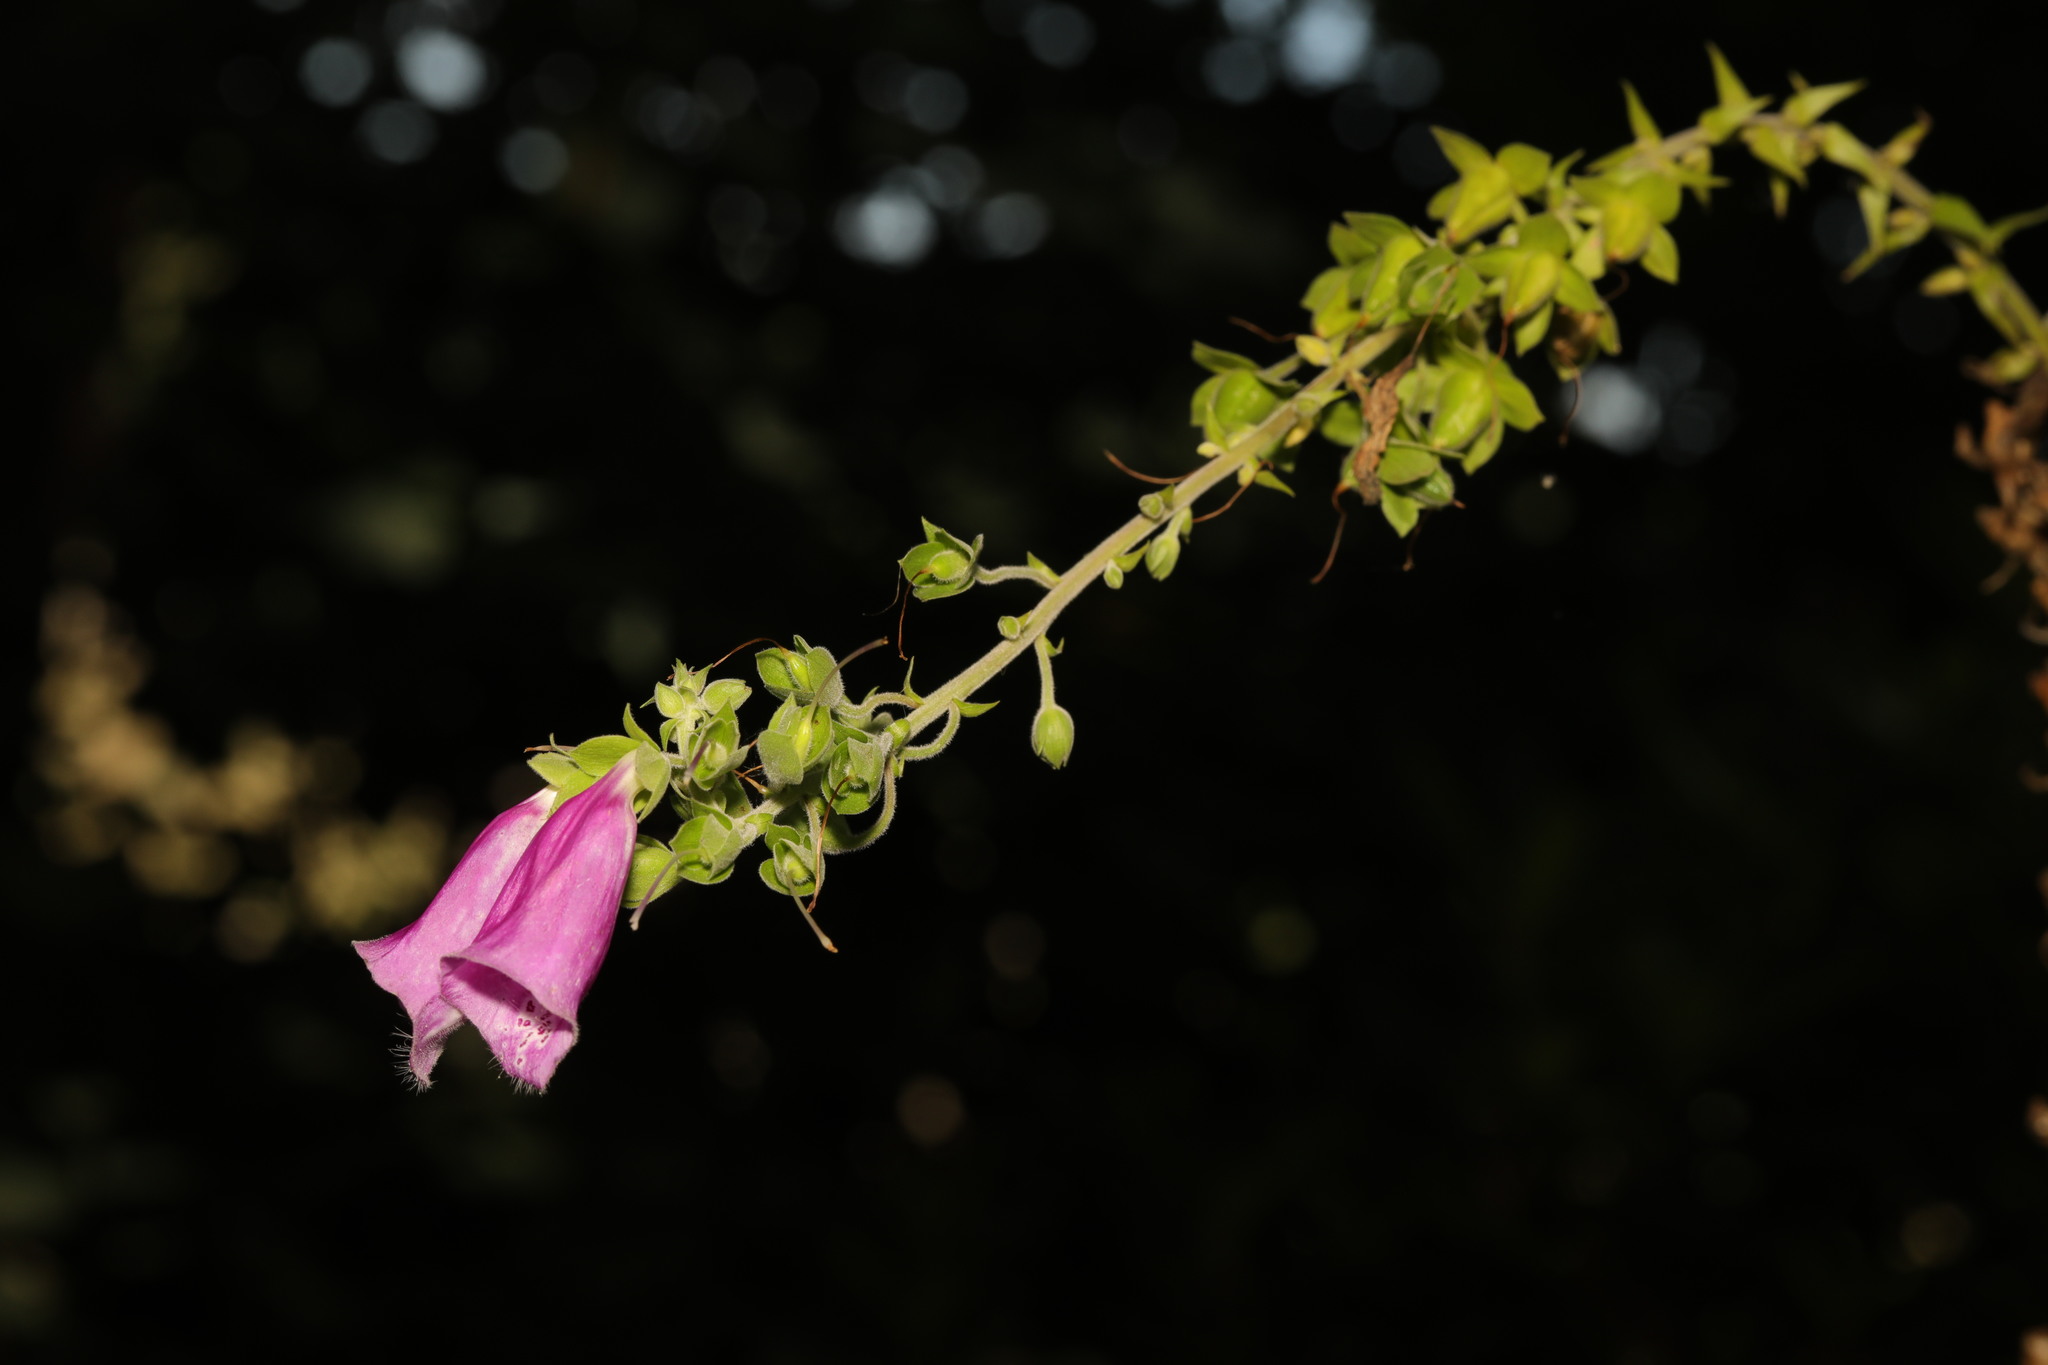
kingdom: Plantae
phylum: Tracheophyta
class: Magnoliopsida
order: Lamiales
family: Plantaginaceae
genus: Digitalis
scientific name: Digitalis purpurea
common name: Foxglove
